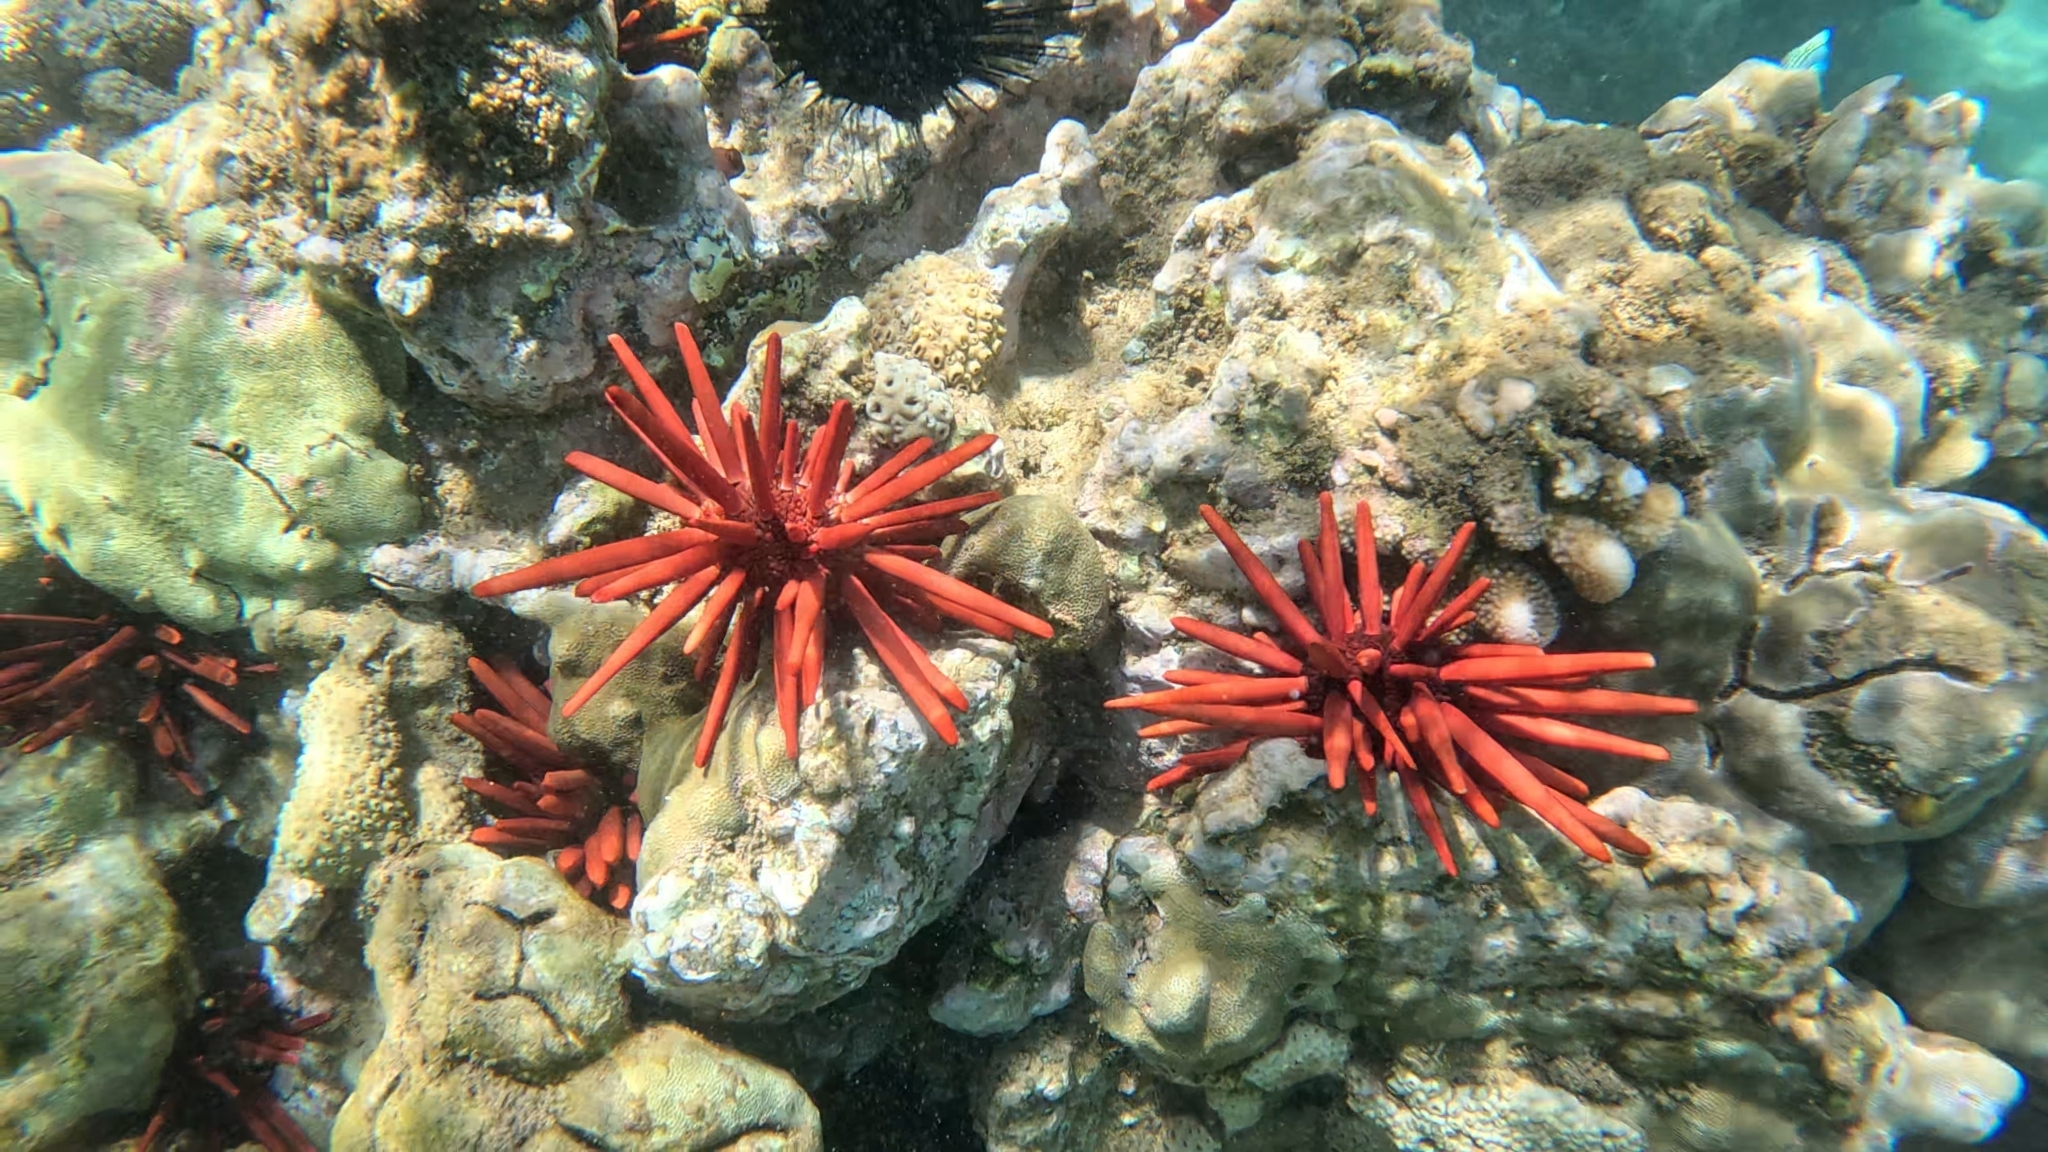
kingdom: Animalia
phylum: Echinodermata
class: Echinoidea
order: Camarodonta
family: Echinometridae
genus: Heterocentrotus
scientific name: Heterocentrotus mamillatus
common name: Slate pencil urchin
